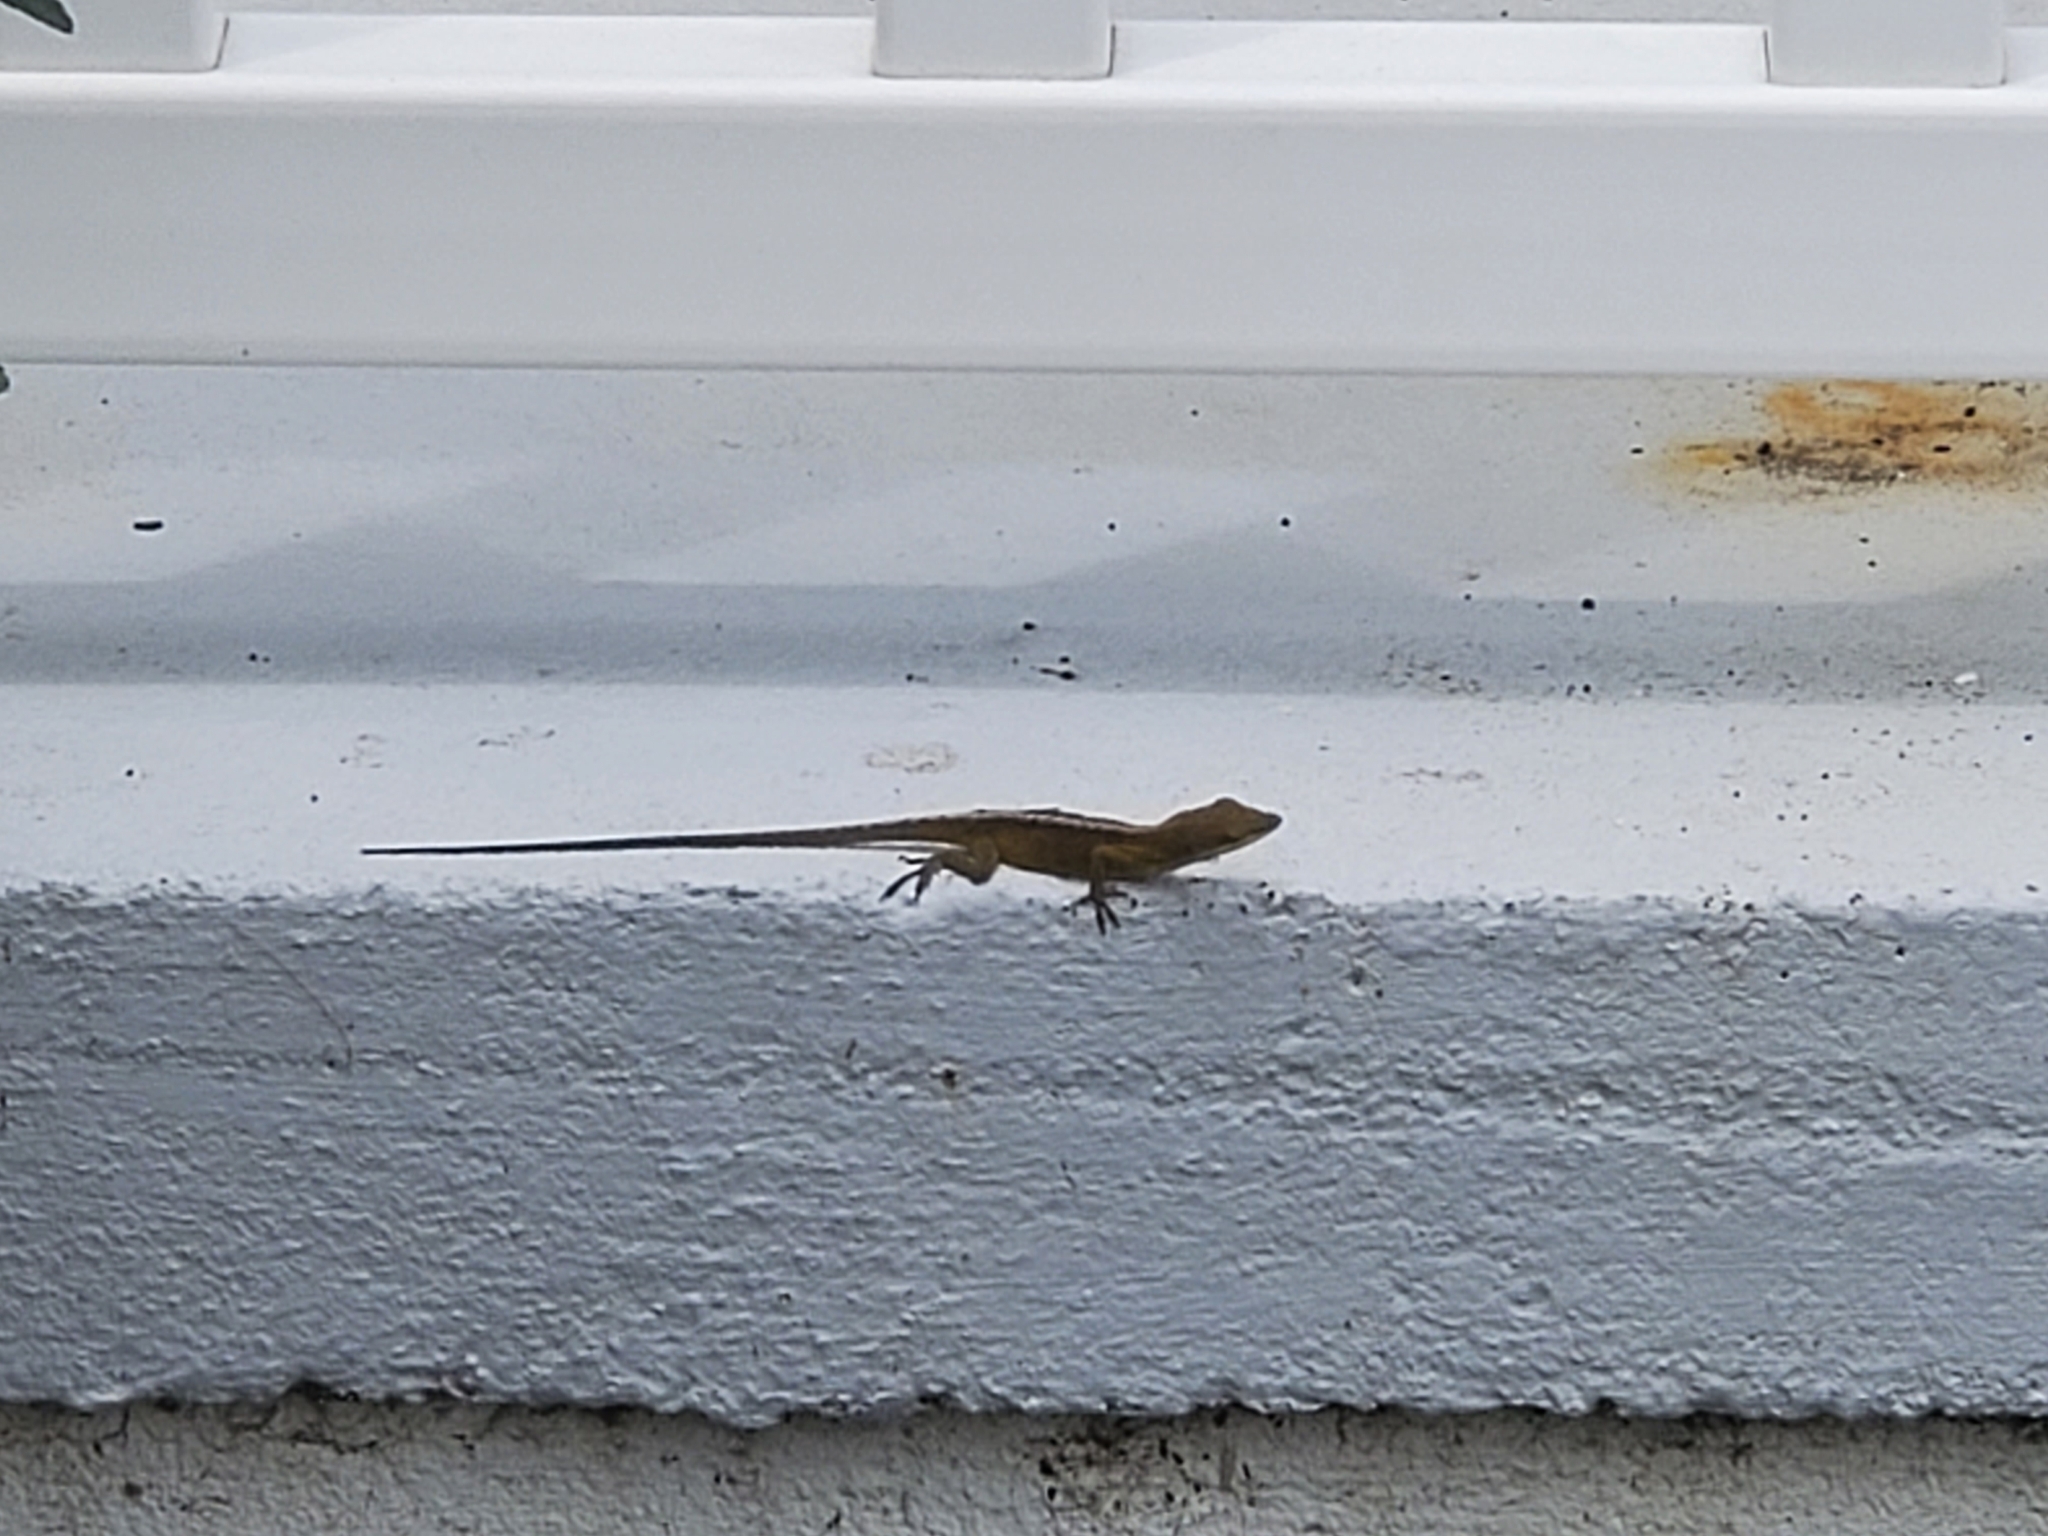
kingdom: Animalia
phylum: Chordata
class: Squamata
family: Dactyloidae
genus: Anolis
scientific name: Anolis carolinensis
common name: Green anole
